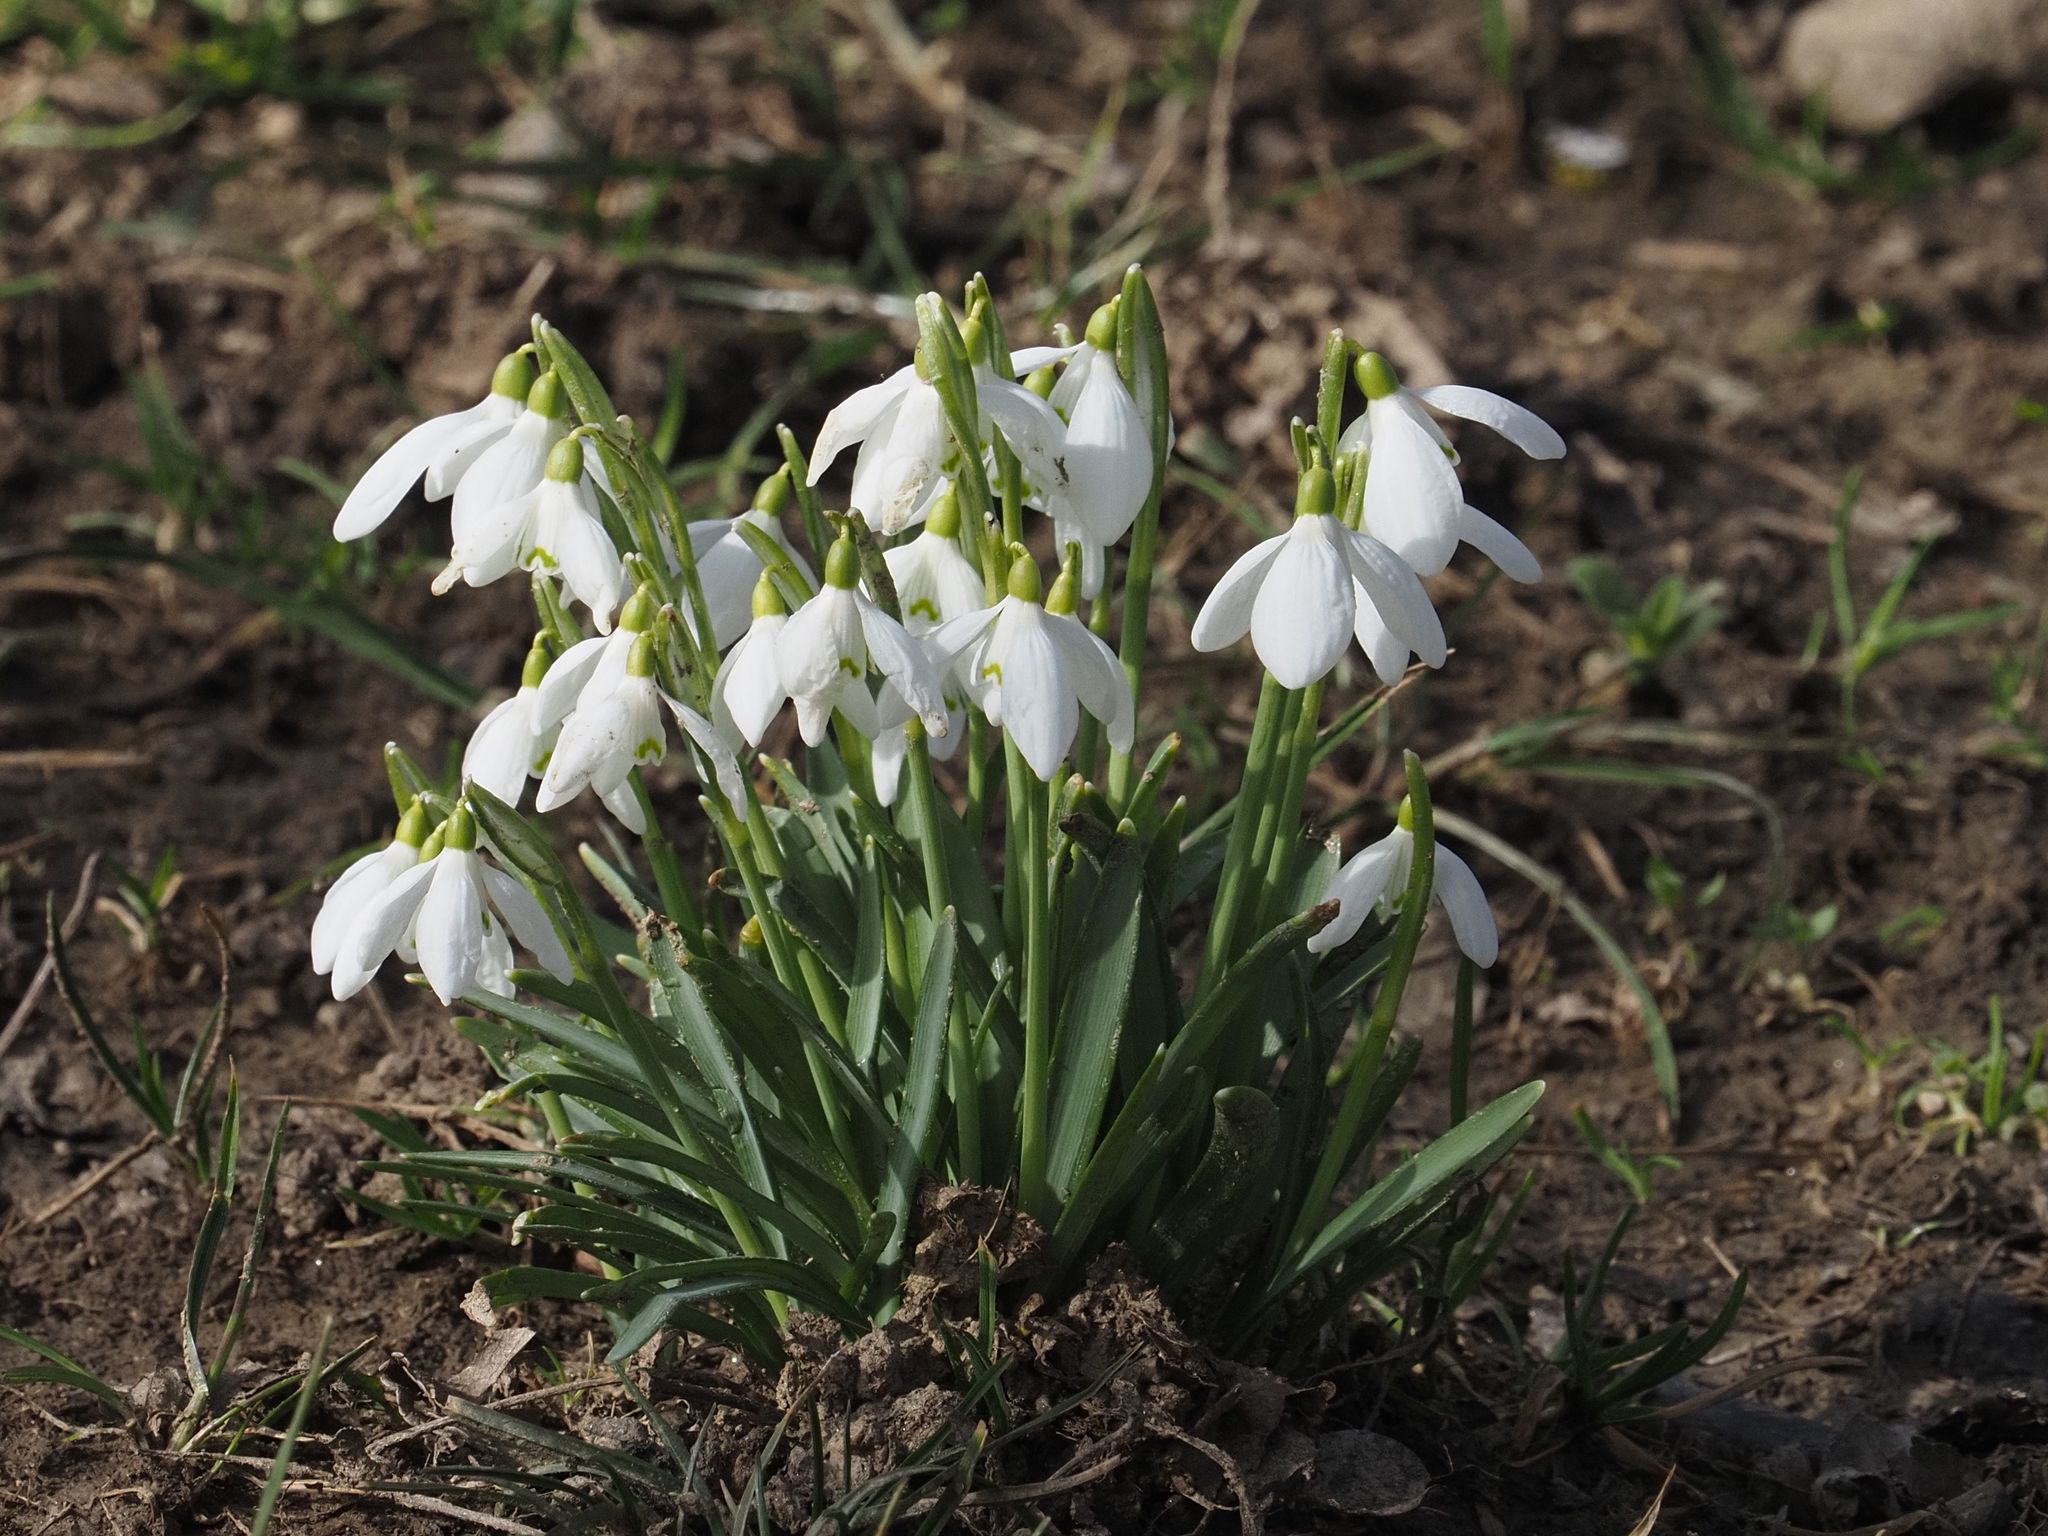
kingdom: Plantae
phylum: Tracheophyta
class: Liliopsida
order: Asparagales
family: Amaryllidaceae
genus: Galanthus
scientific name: Galanthus nivalis
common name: Snowdrop
